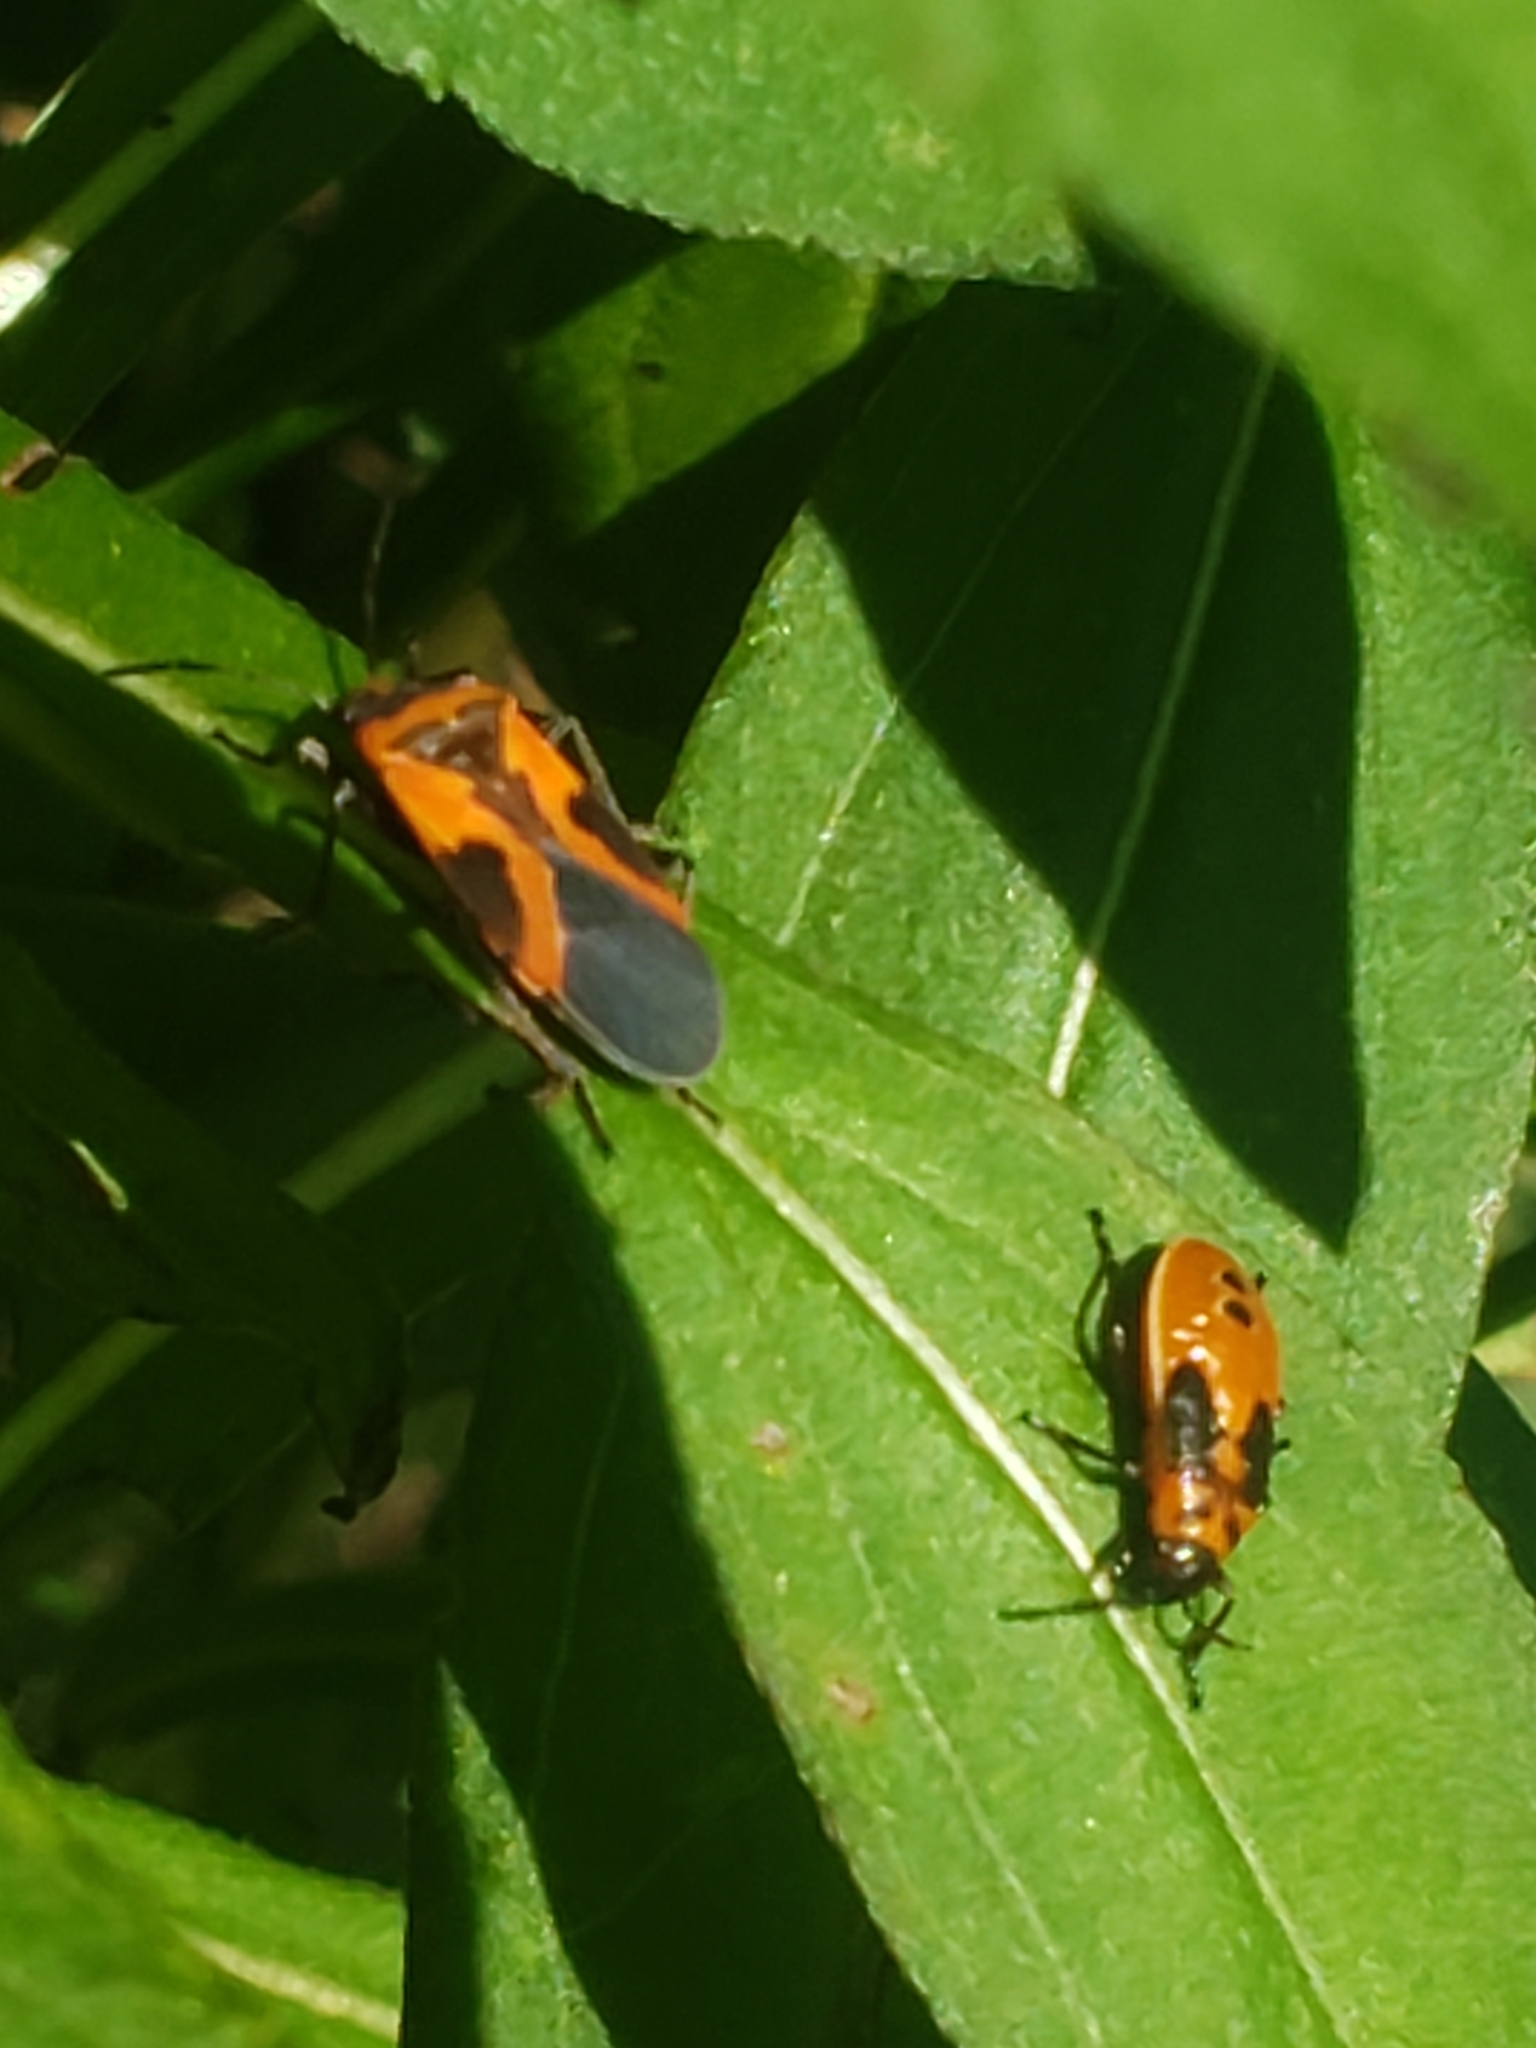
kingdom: Animalia
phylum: Arthropoda
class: Insecta
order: Hemiptera
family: Lygaeidae
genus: Lygaeus
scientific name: Lygaeus turcicus
